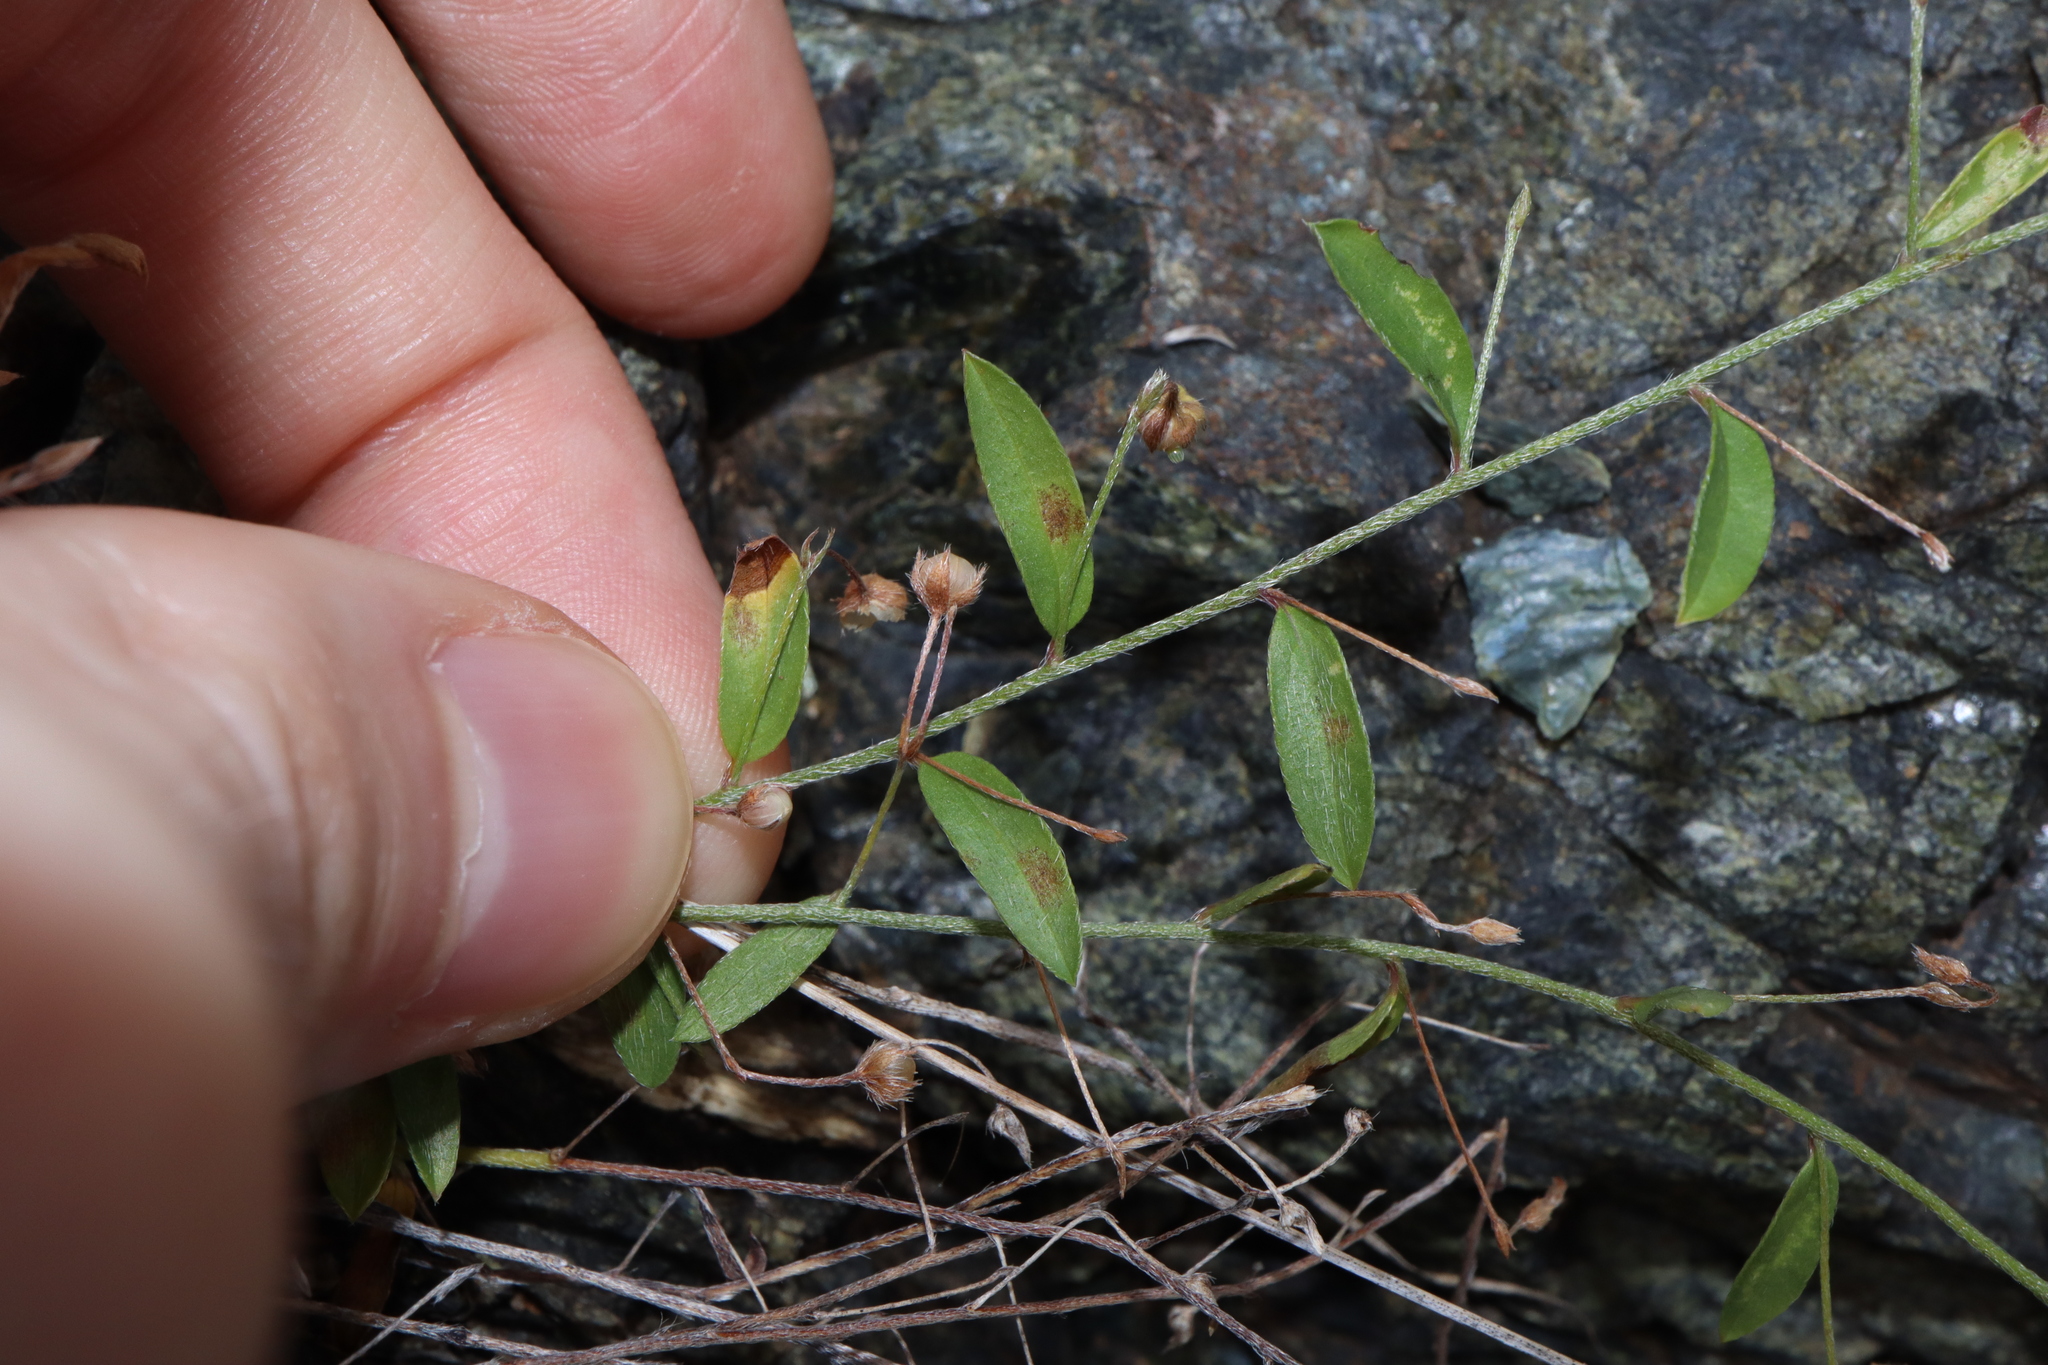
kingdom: Plantae
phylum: Tracheophyta
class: Magnoliopsida
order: Solanales
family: Convolvulaceae
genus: Evolvulus
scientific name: Evolvulus alsinoides
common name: Slender dwarf morning-glory
